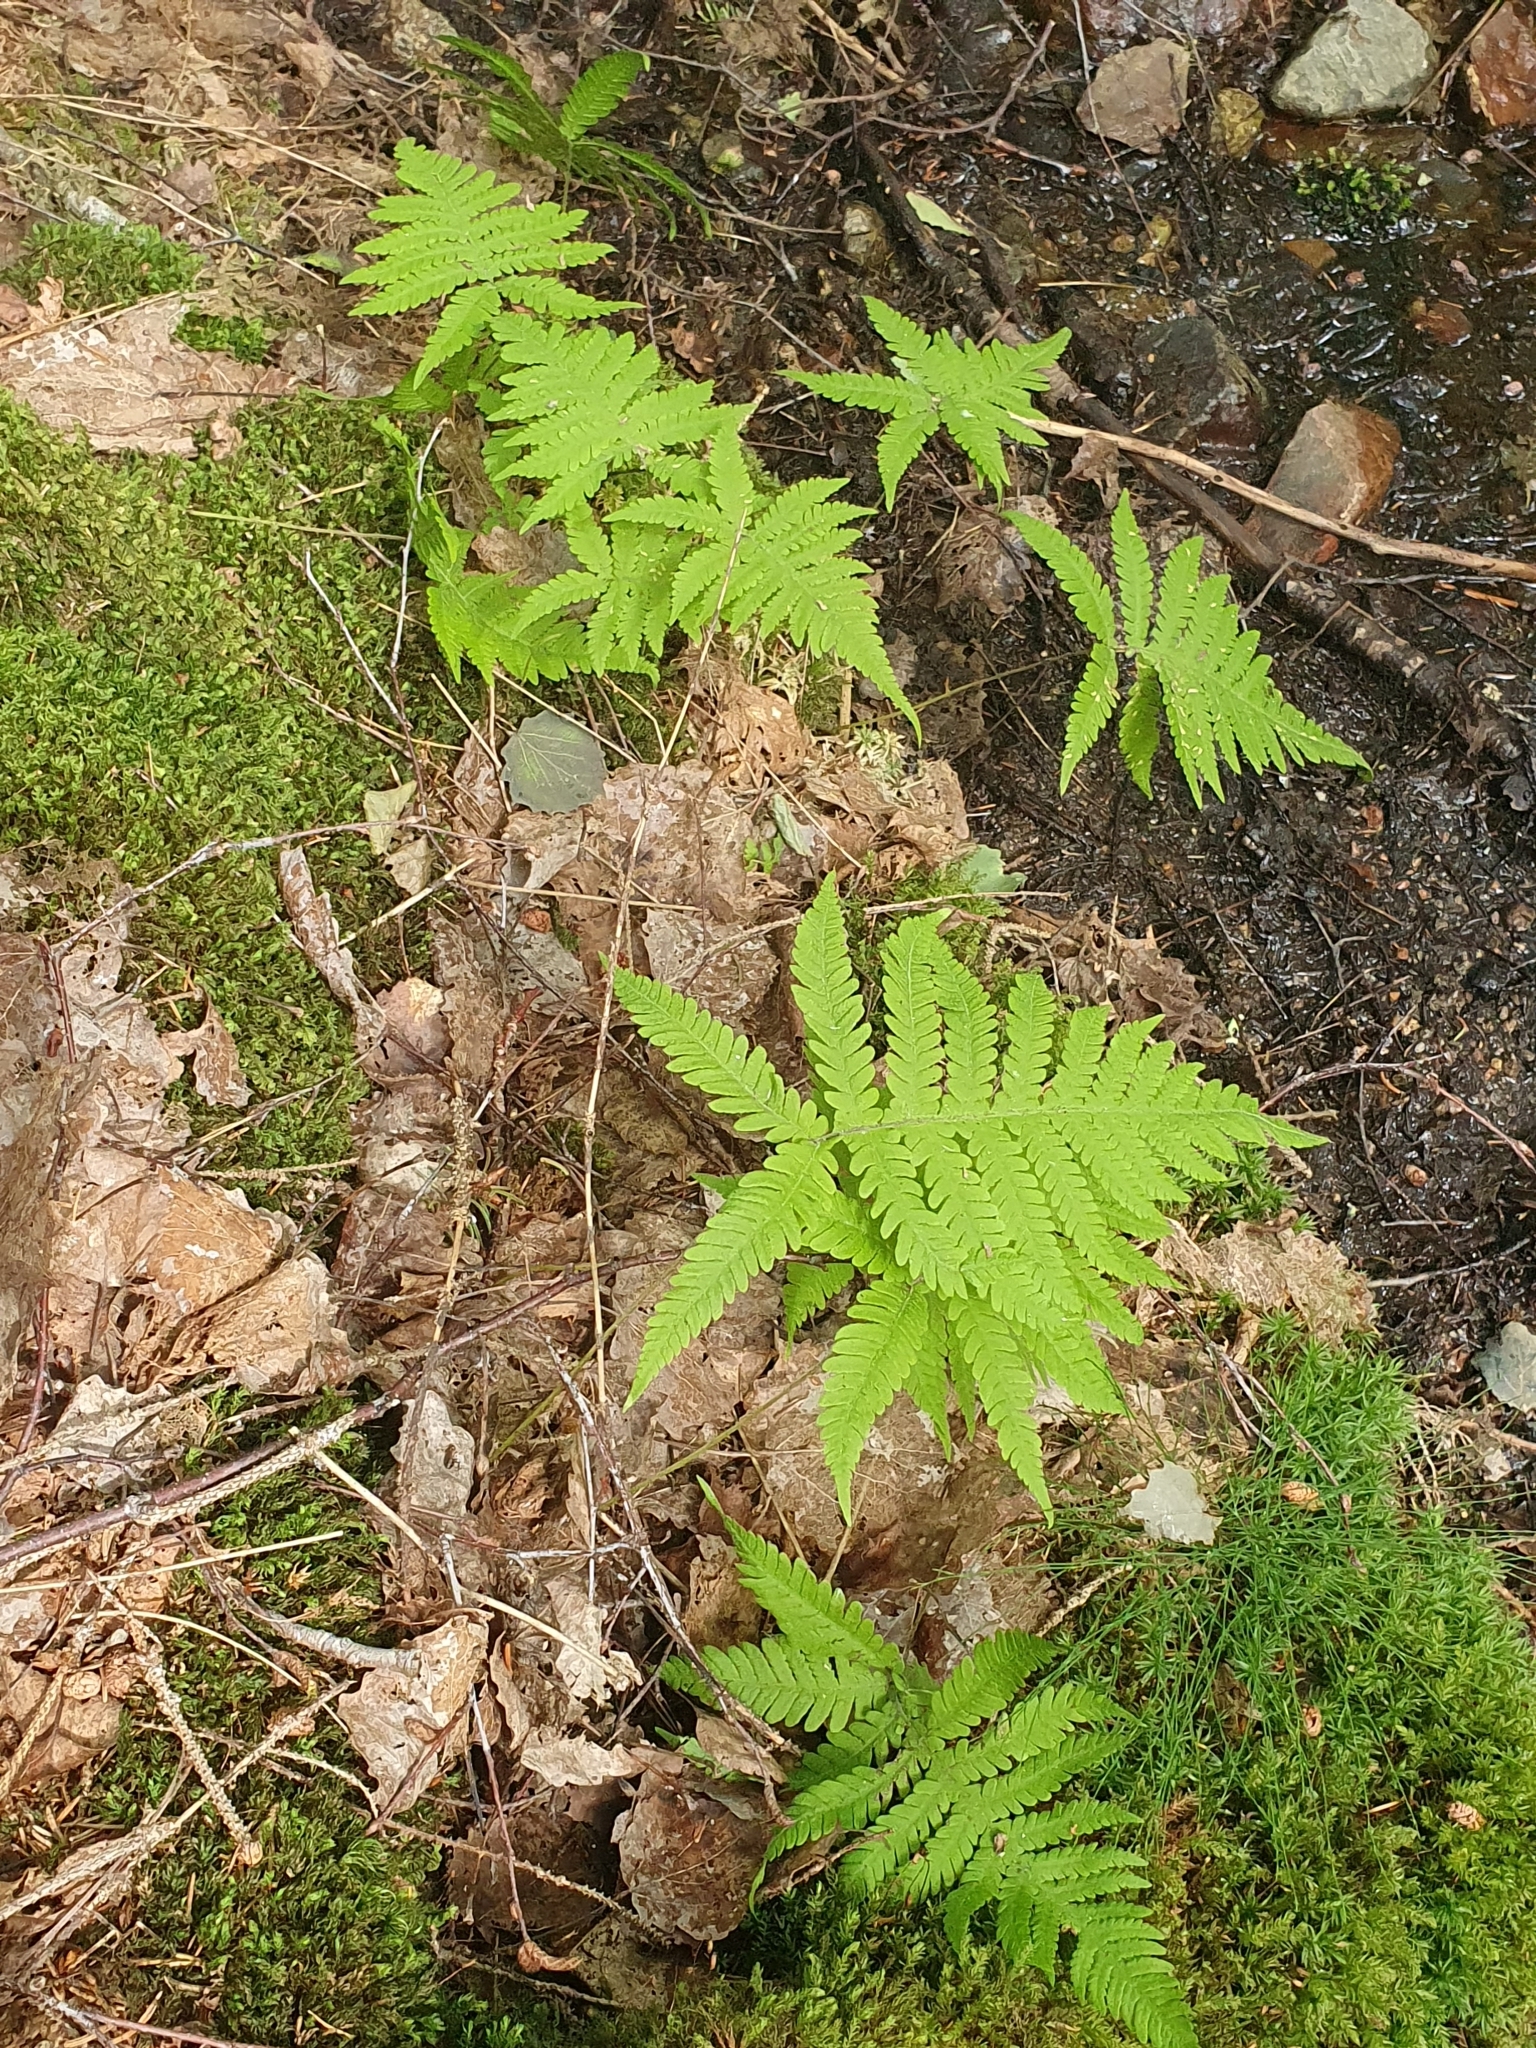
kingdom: Plantae
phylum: Tracheophyta
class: Polypodiopsida
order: Polypodiales
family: Thelypteridaceae
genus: Phegopteris
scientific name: Phegopteris connectilis
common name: Beech fern
